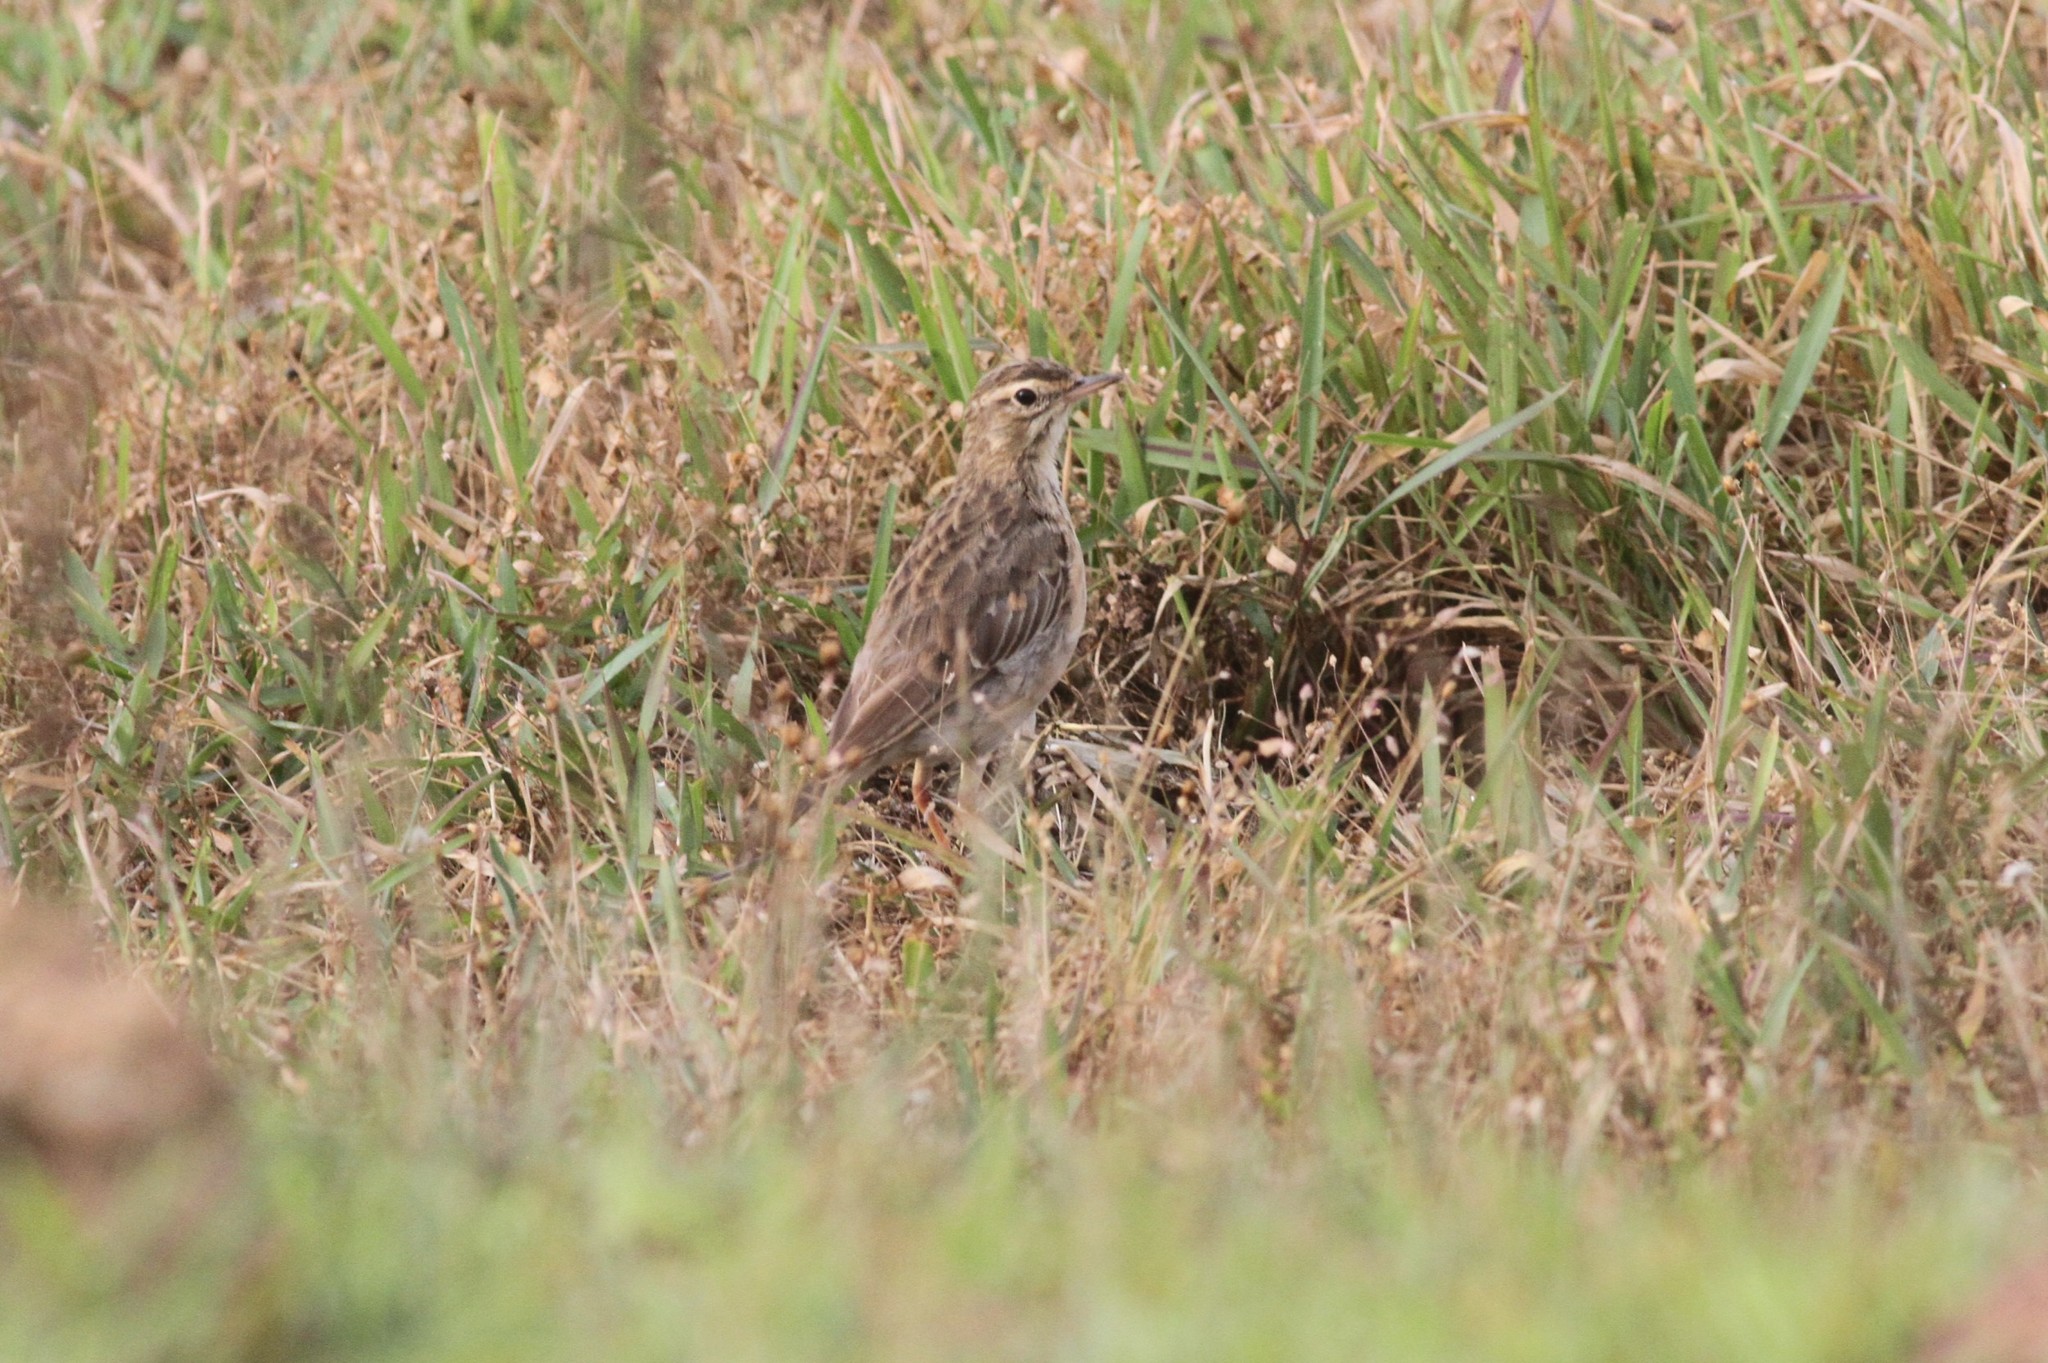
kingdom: Animalia
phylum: Chordata
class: Aves
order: Passeriformes
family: Motacillidae
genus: Anthus
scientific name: Anthus rufulus
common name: Paddyfield pipit
